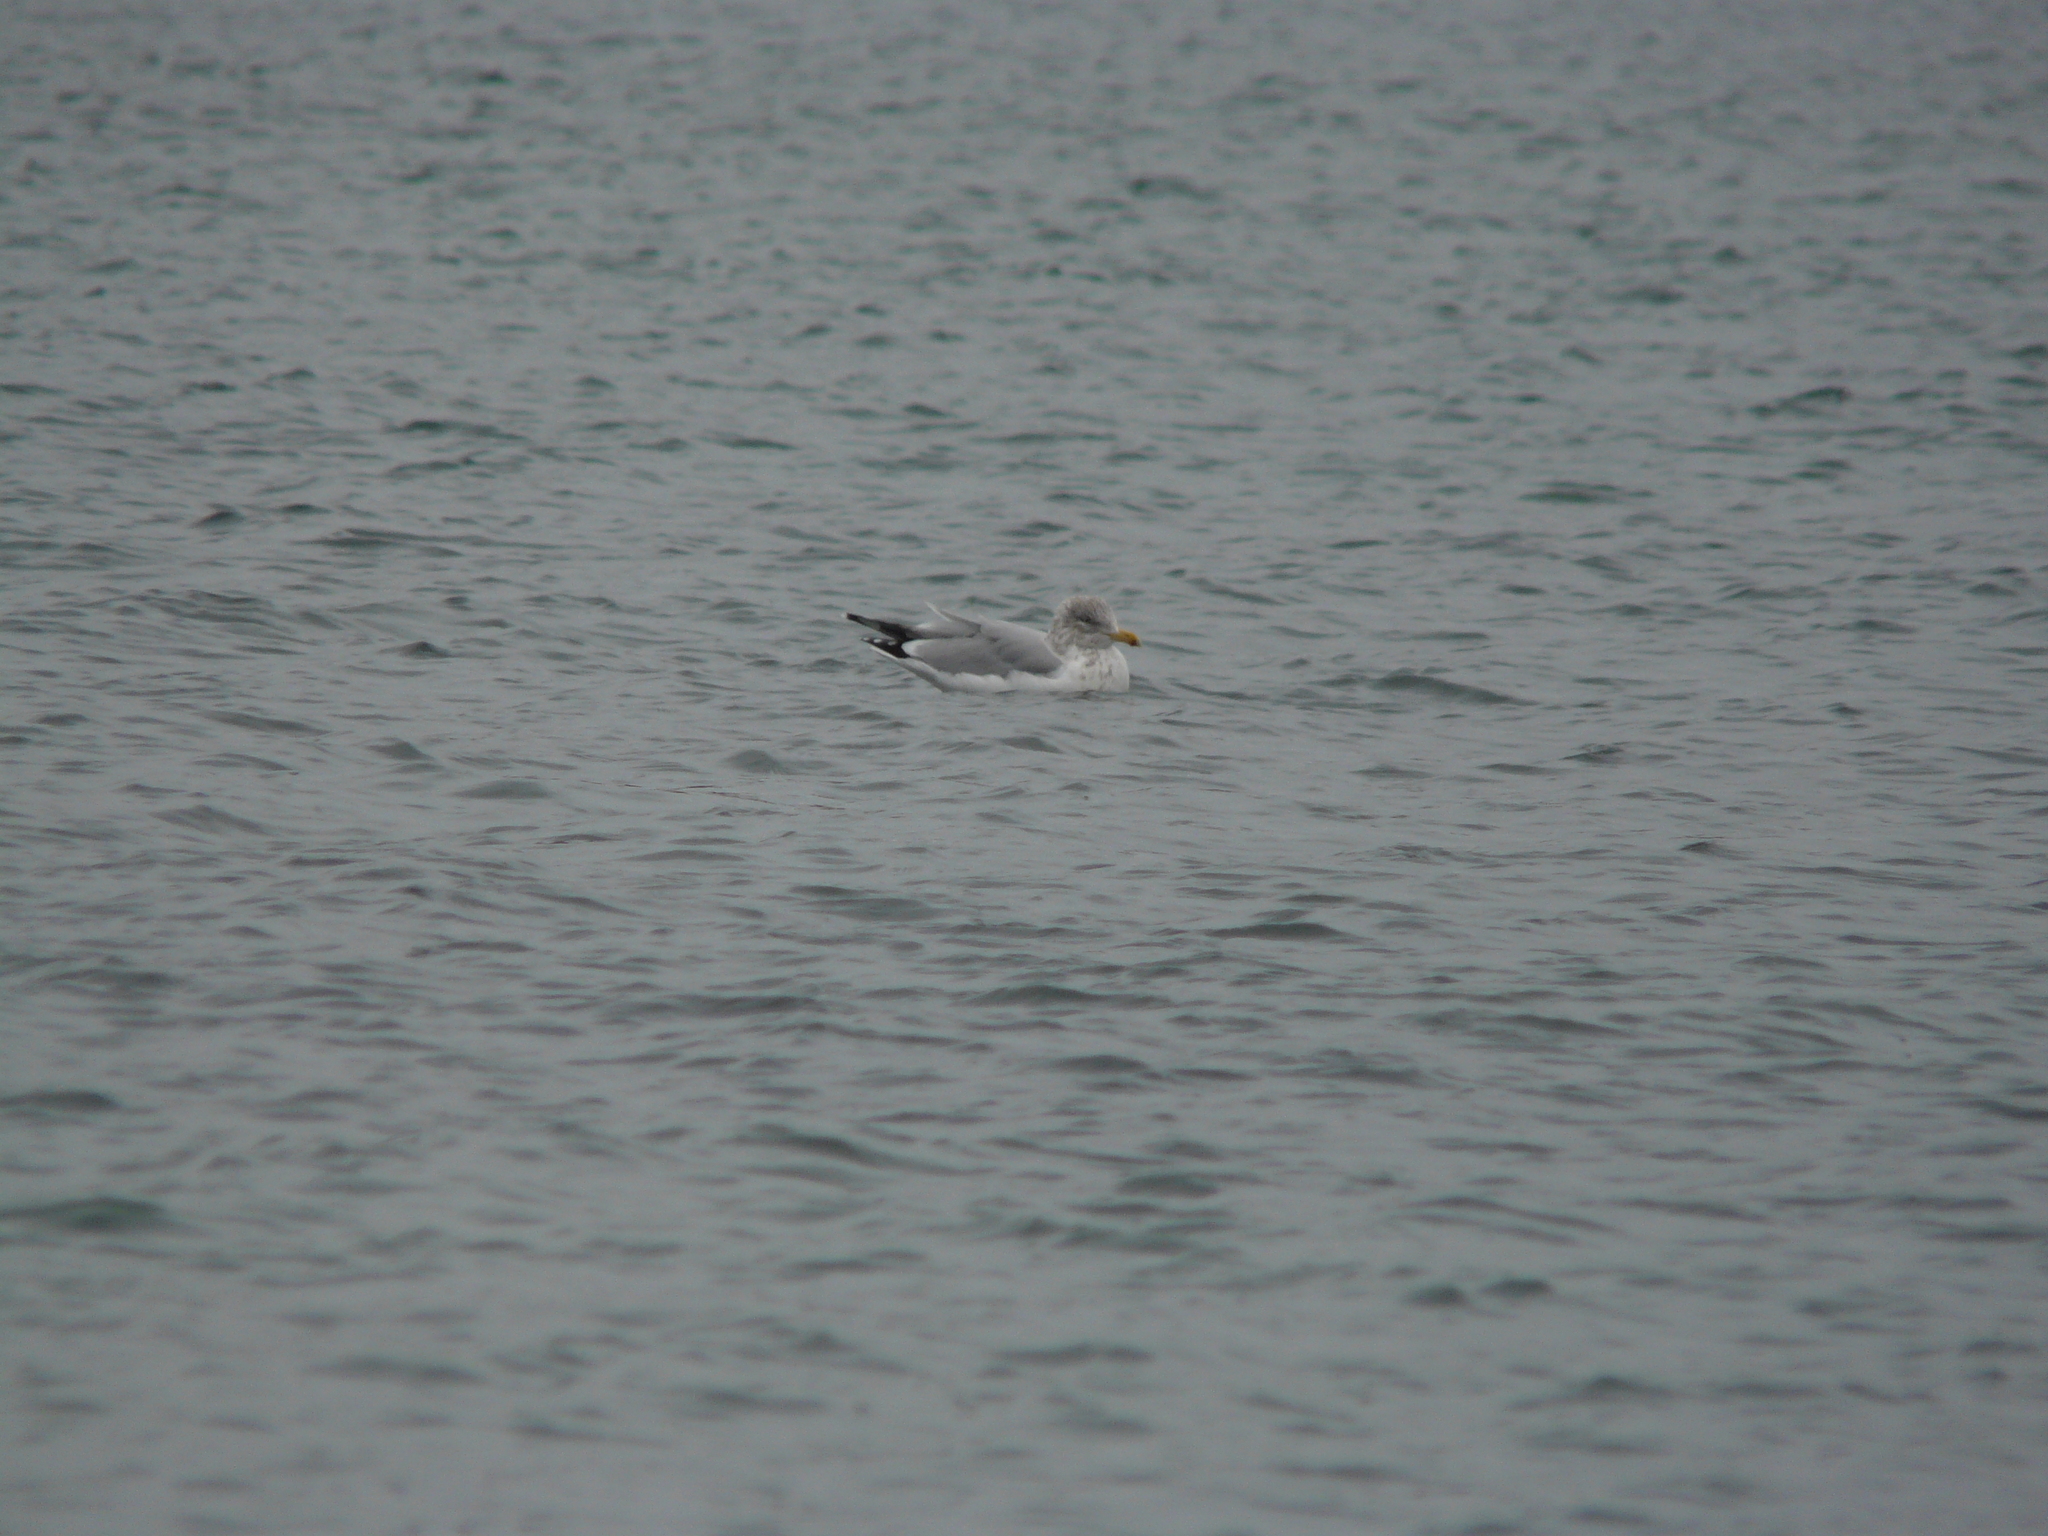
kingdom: Animalia
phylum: Chordata
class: Aves
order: Charadriiformes
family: Laridae
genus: Larus
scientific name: Larus smithsonianus
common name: American herring gull
